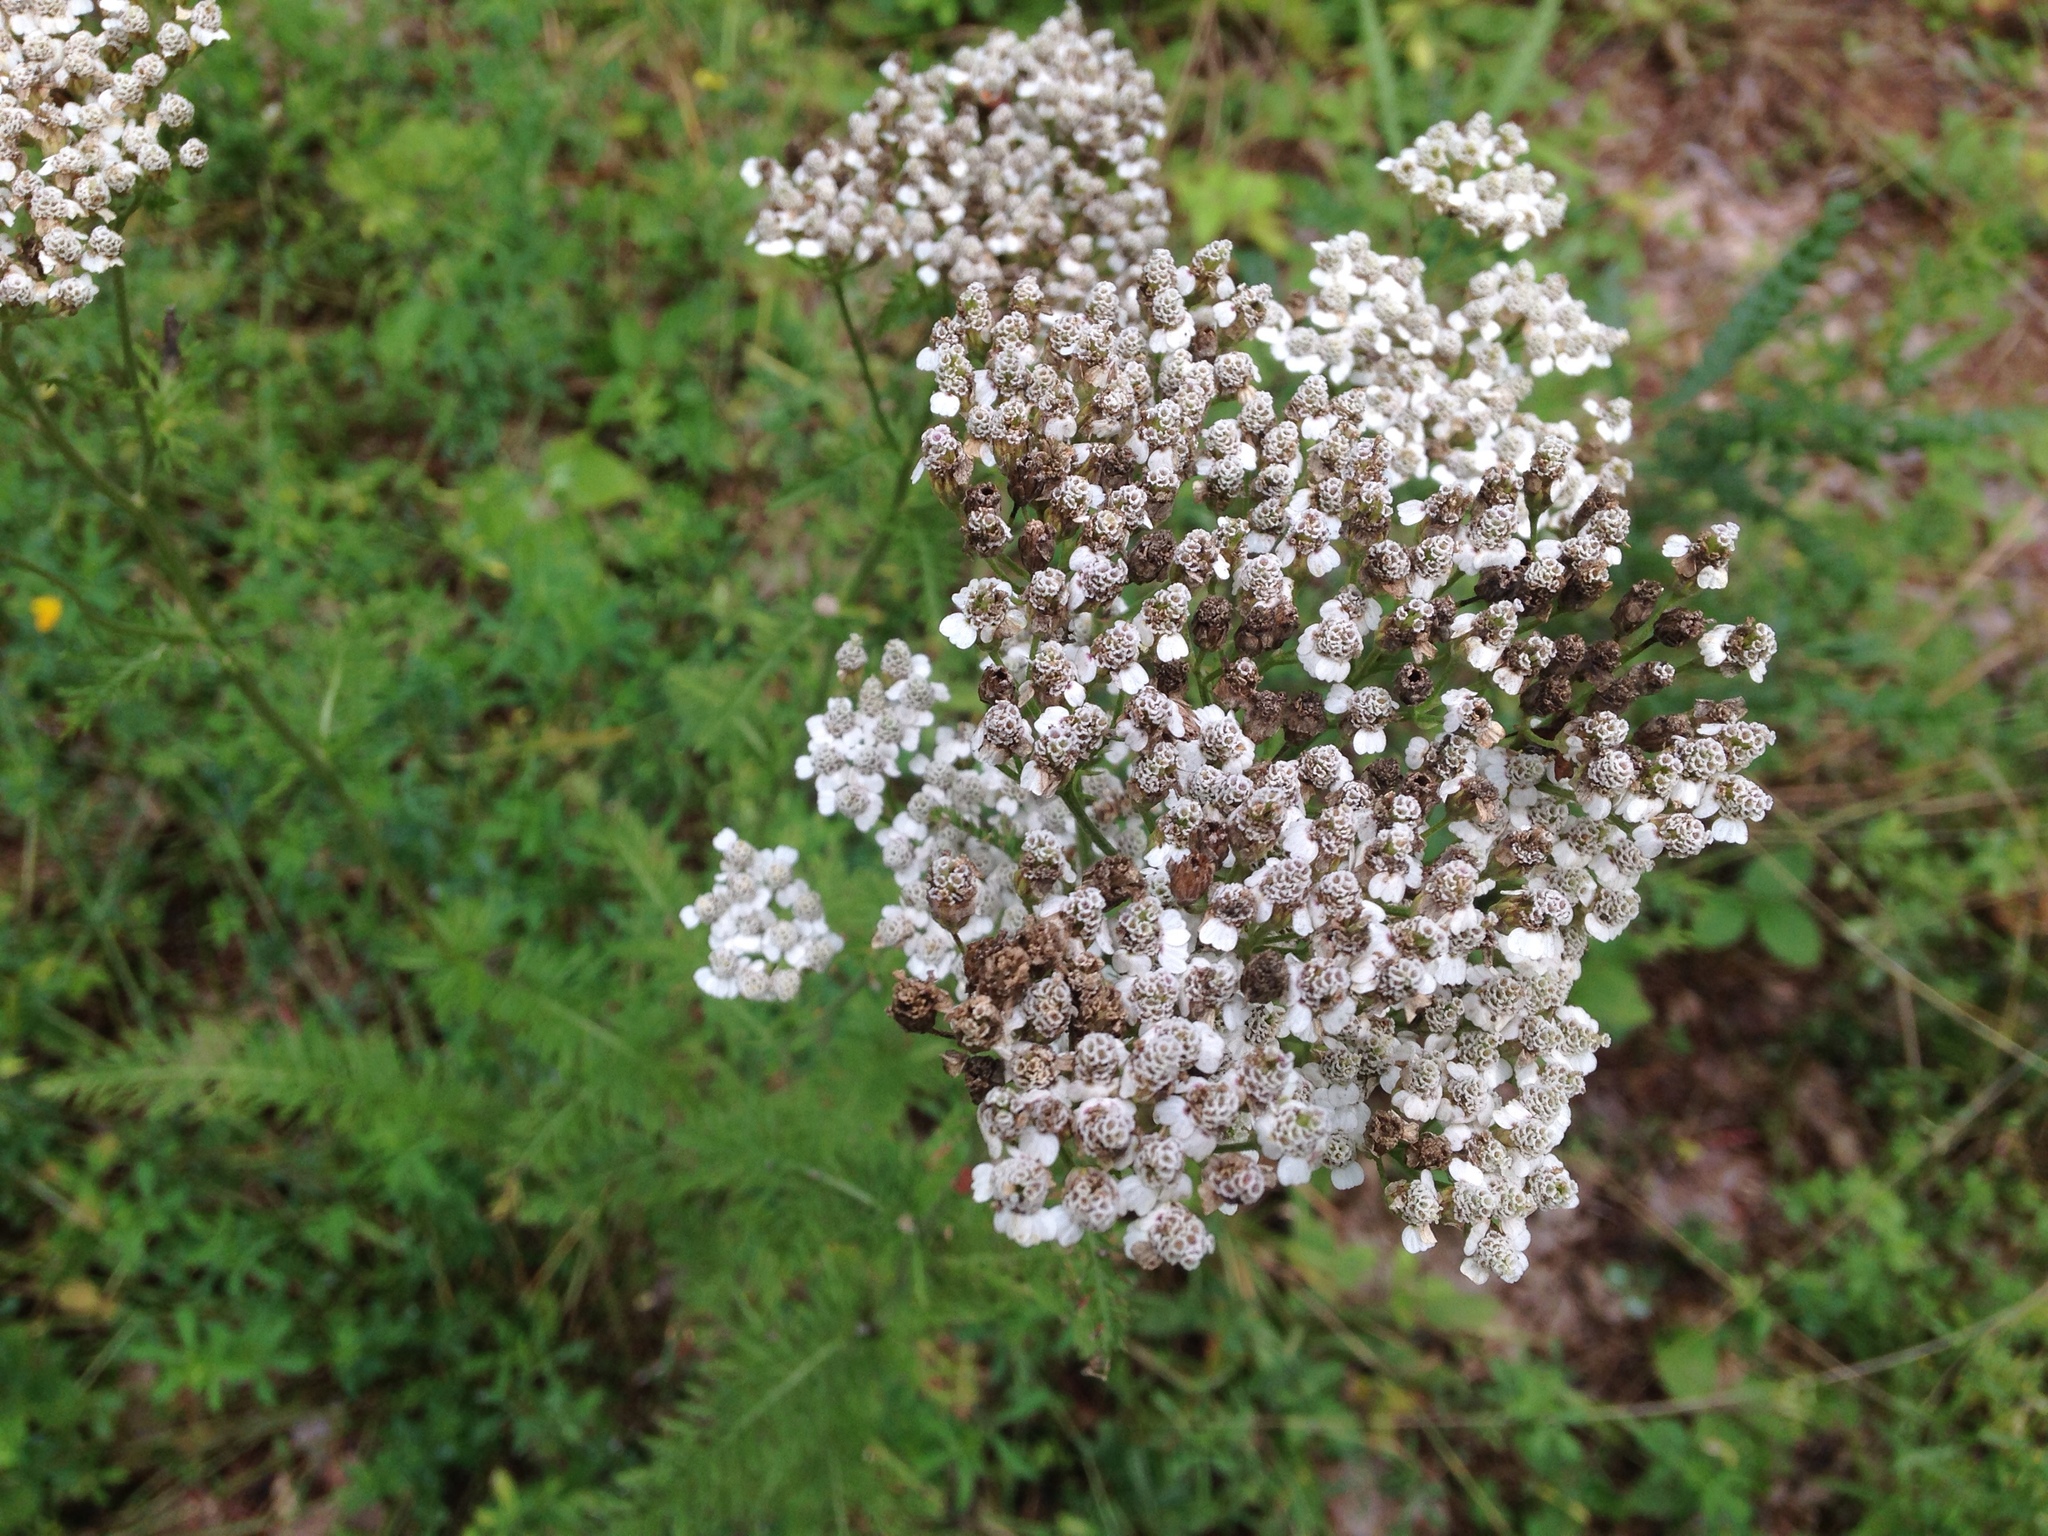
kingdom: Plantae
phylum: Tracheophyta
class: Magnoliopsida
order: Asterales
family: Asteraceae
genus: Achillea
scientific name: Achillea millefolium
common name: Yarrow
